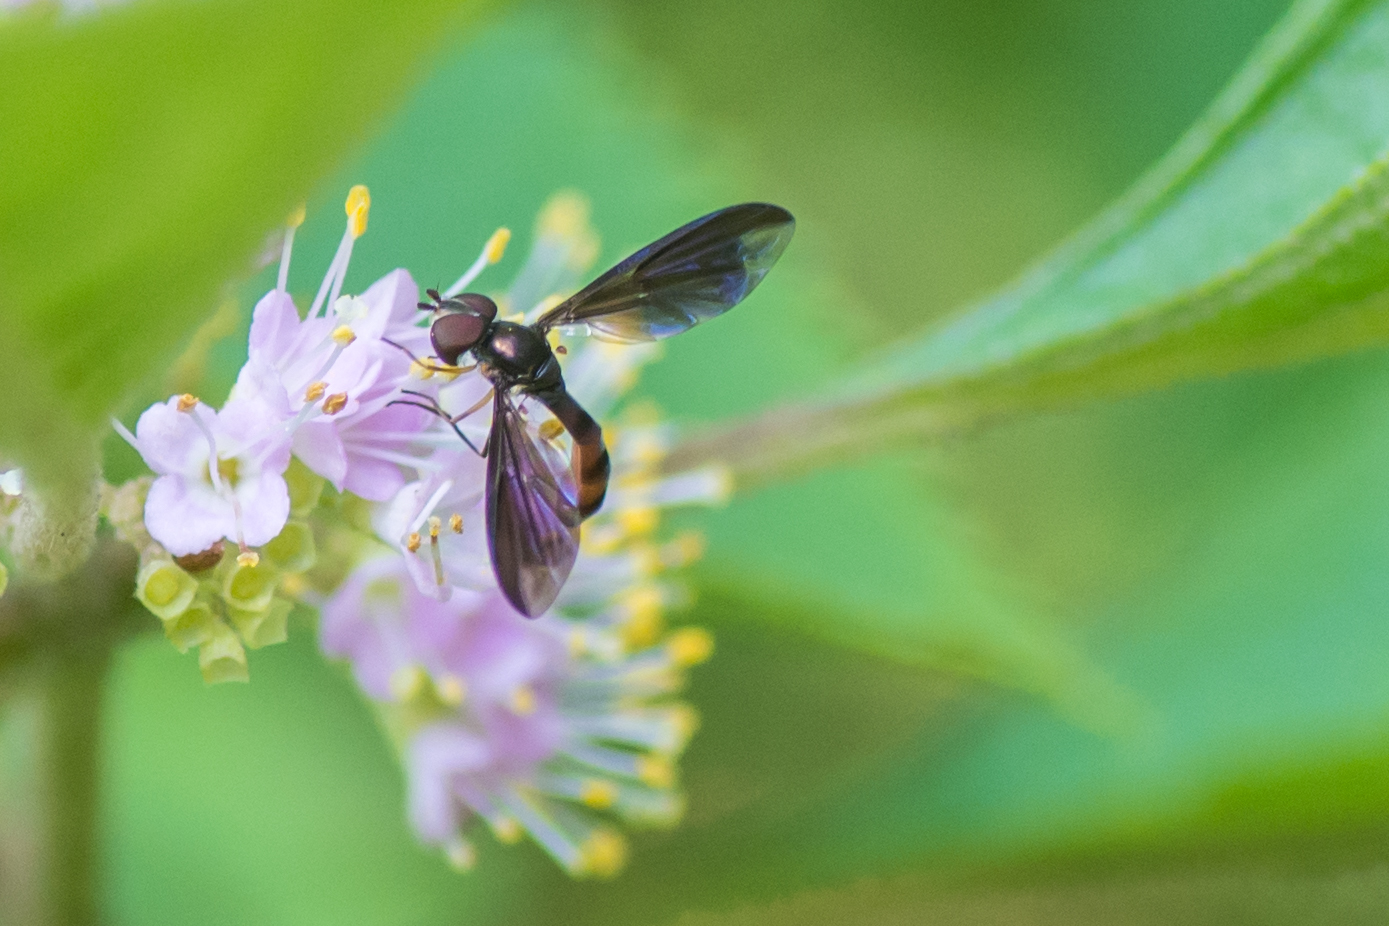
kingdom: Animalia
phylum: Arthropoda
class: Insecta
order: Diptera
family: Syrphidae
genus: Ocyptamus
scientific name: Ocyptamus fuscipennis
